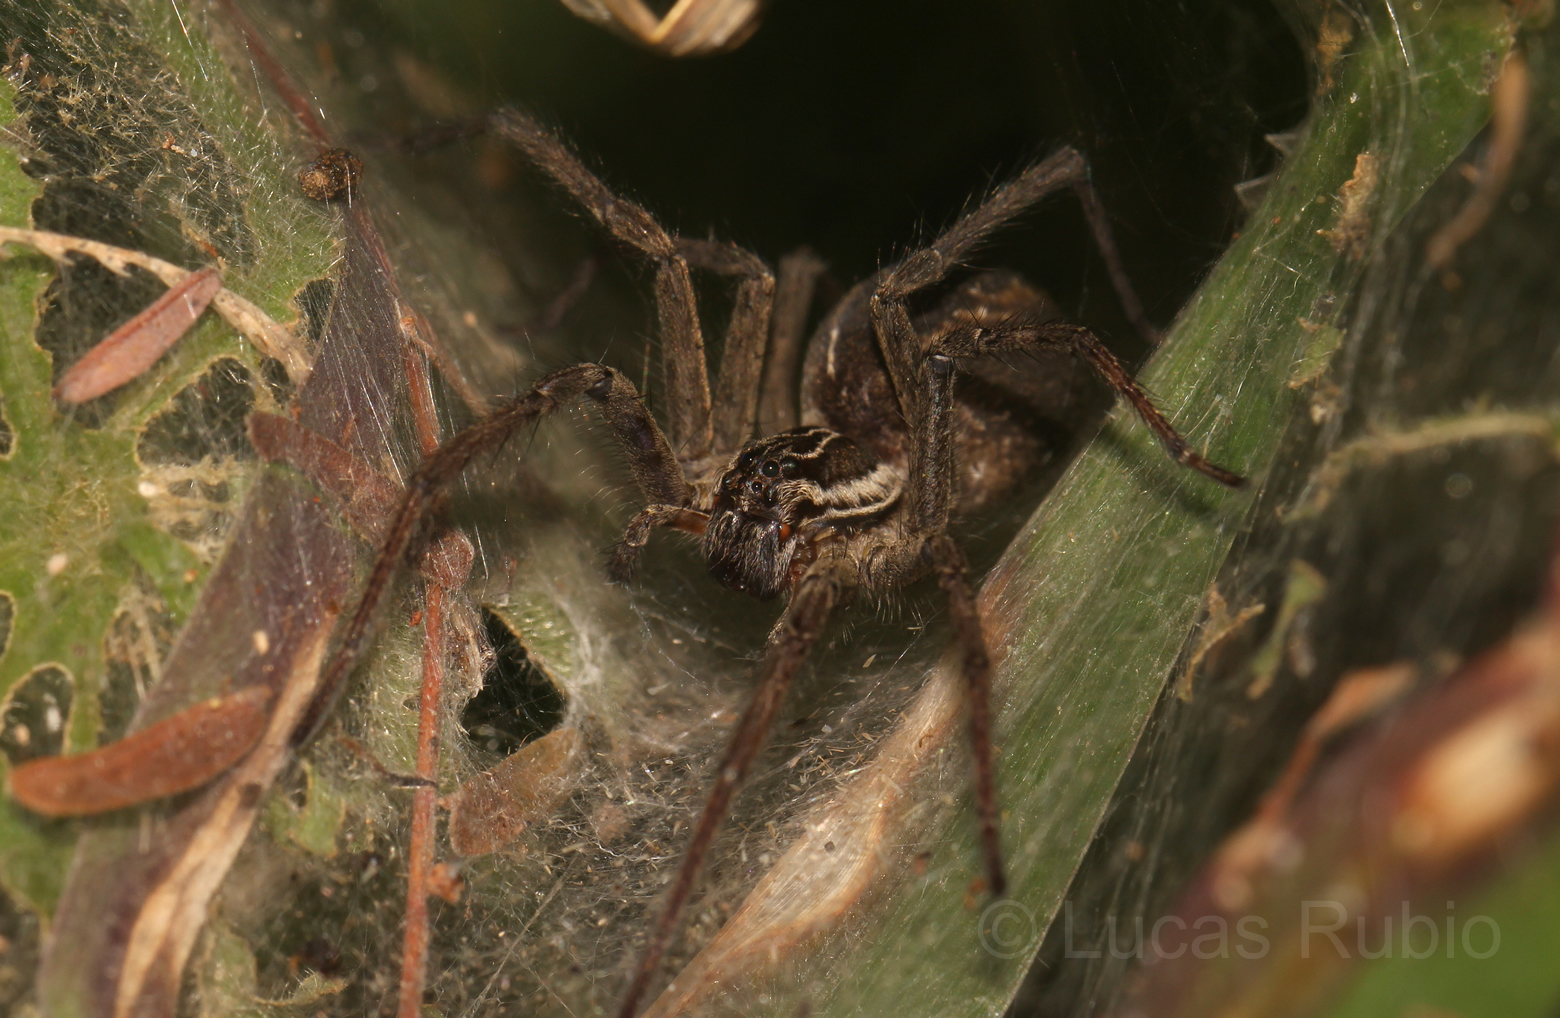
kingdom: Animalia
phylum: Arthropoda
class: Arachnida
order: Araneae
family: Lycosidae
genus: Aglaoctenus
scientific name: Aglaoctenus lagotis
